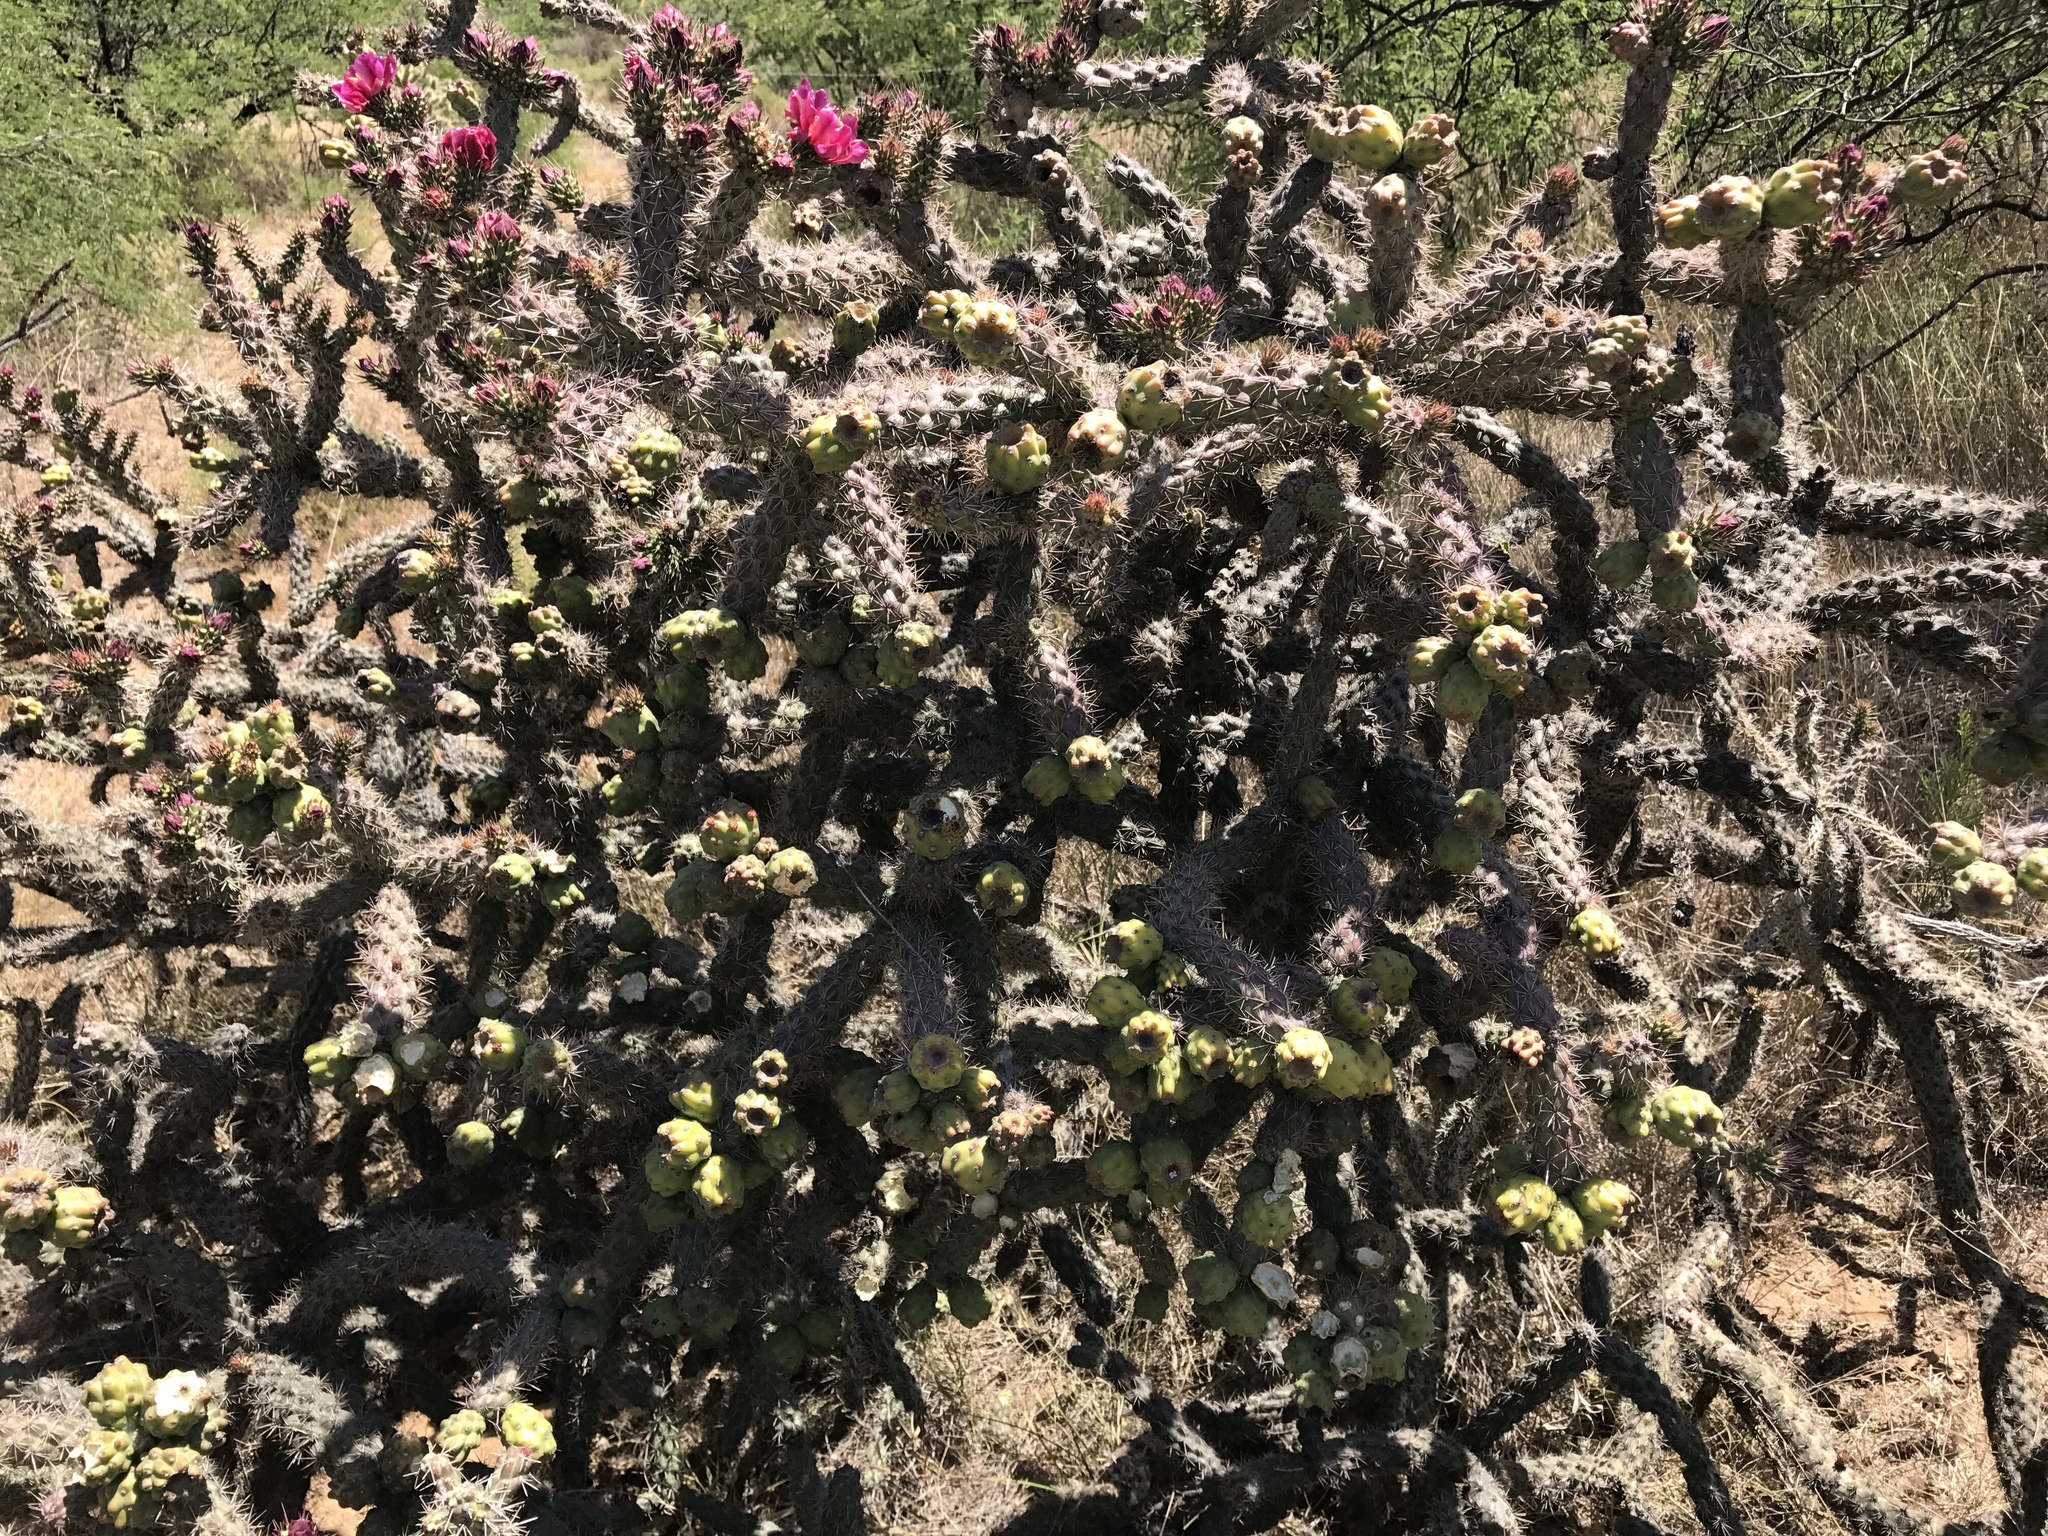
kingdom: Plantae
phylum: Tracheophyta
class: Magnoliopsida
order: Caryophyllales
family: Cactaceae
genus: Cylindropuntia
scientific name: Cylindropuntia thurberi
